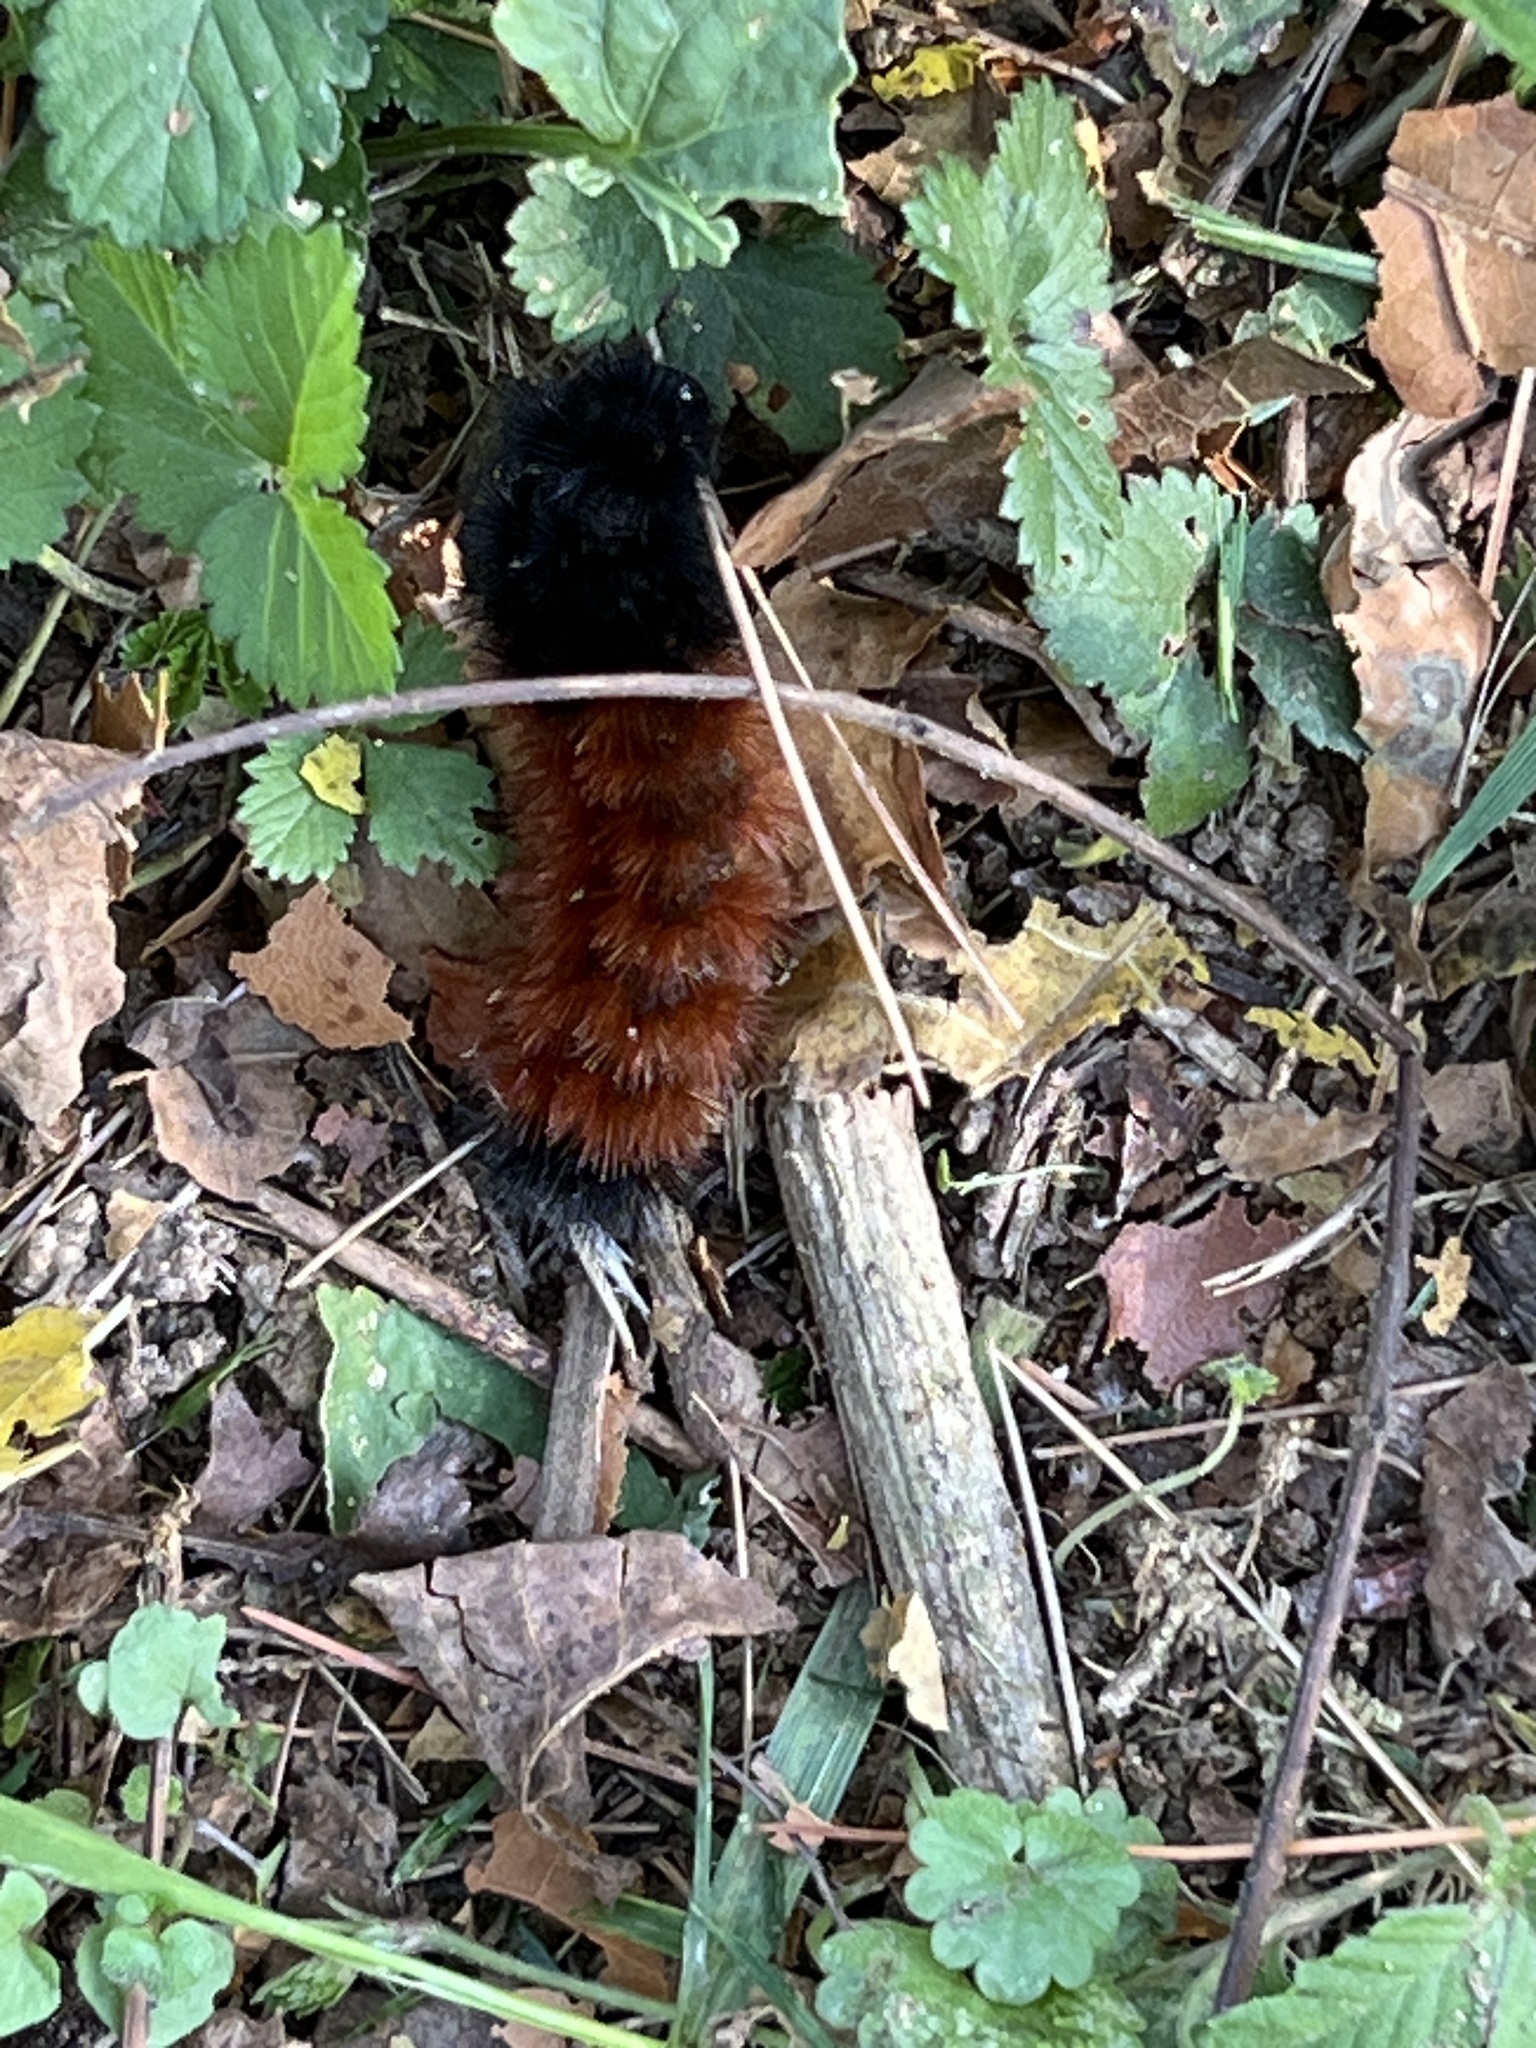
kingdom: Animalia
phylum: Arthropoda
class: Insecta
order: Lepidoptera
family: Erebidae
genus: Pyrrharctia
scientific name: Pyrrharctia isabella
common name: Isabella tiger moth
